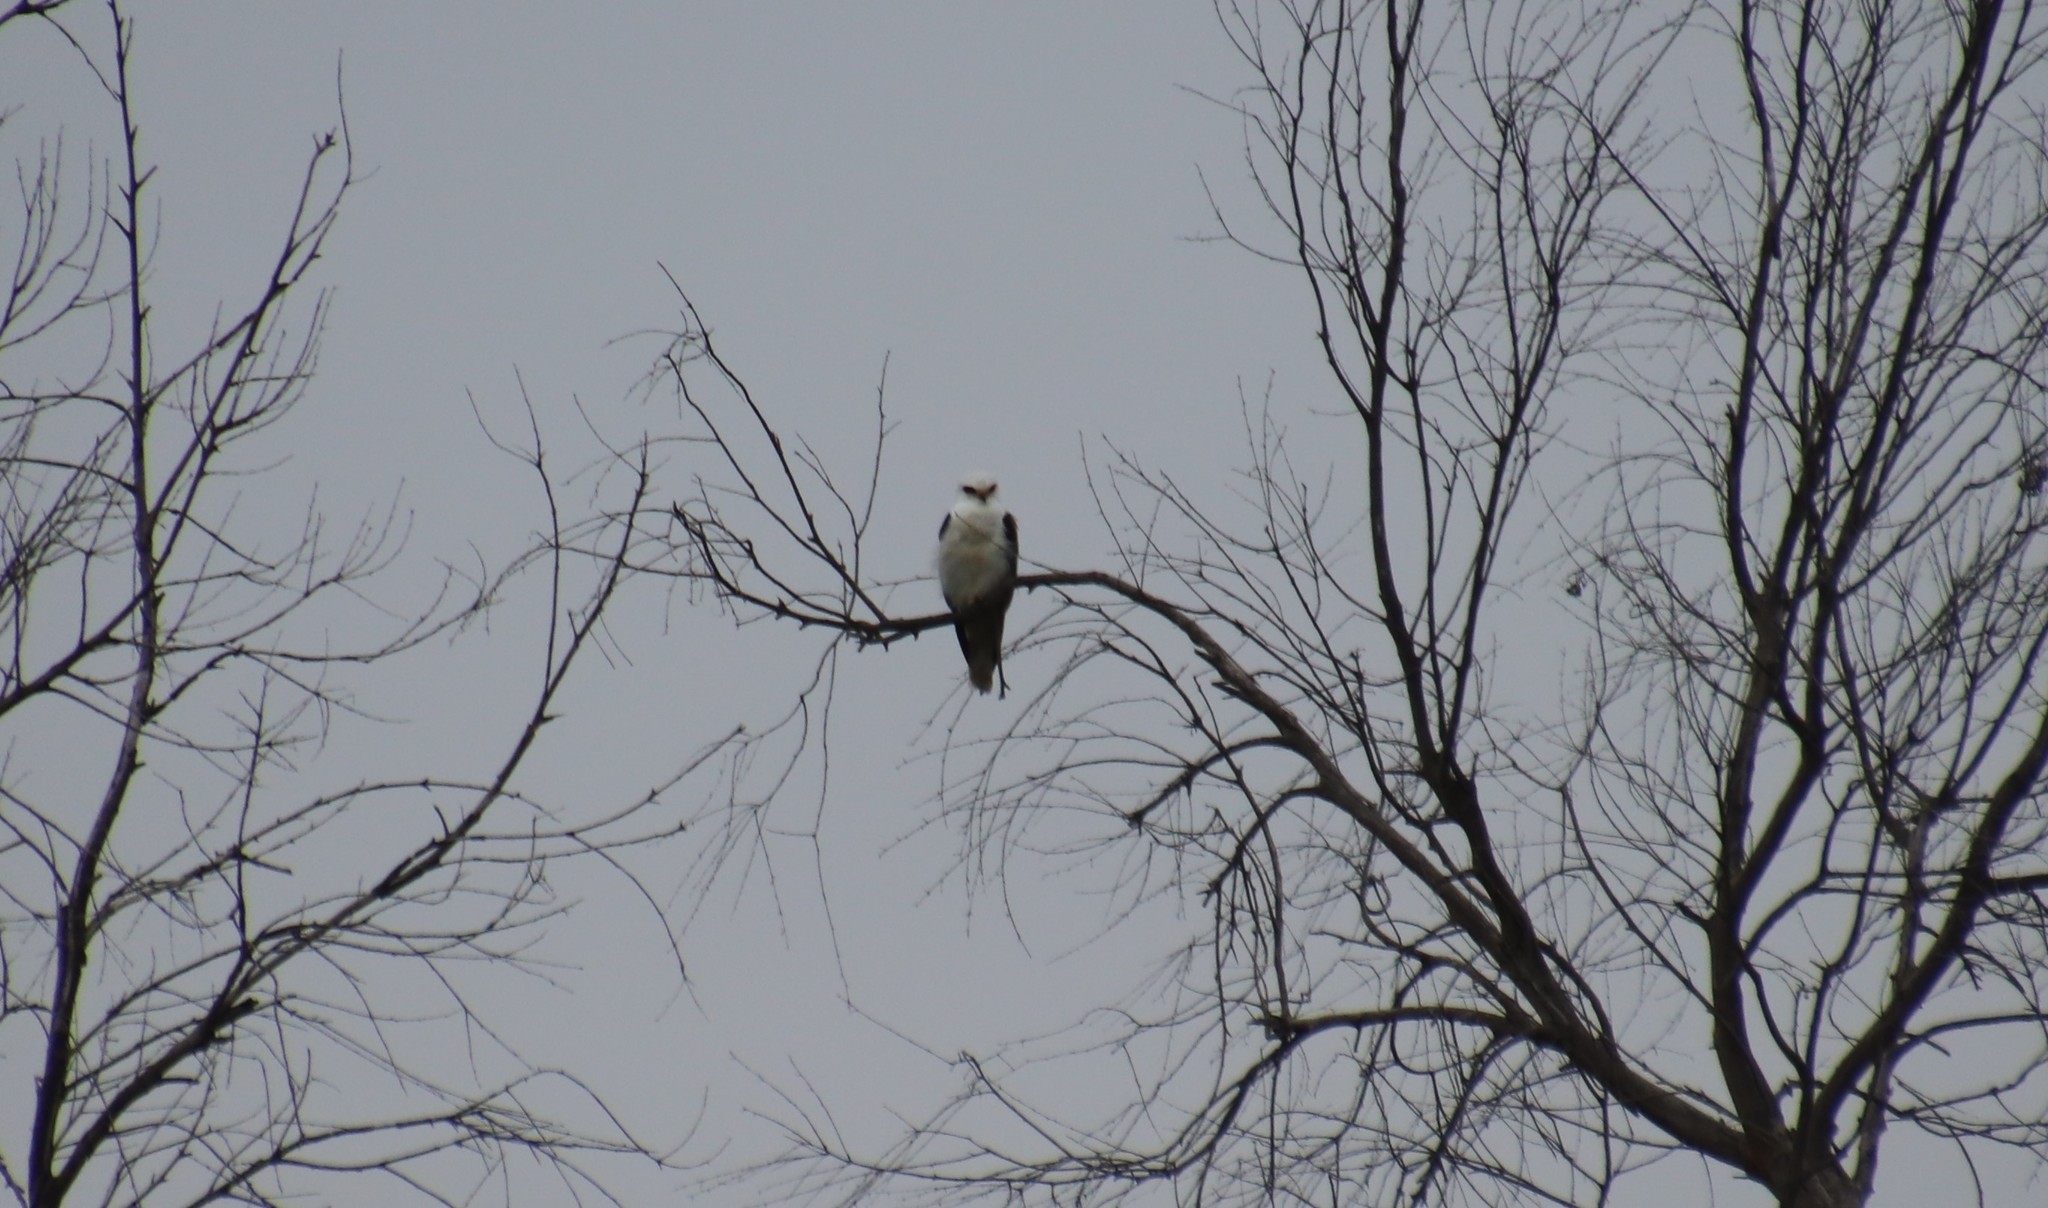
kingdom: Animalia
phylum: Chordata
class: Aves
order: Accipitriformes
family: Accipitridae
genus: Elanus
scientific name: Elanus leucurus
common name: White-tailed kite
